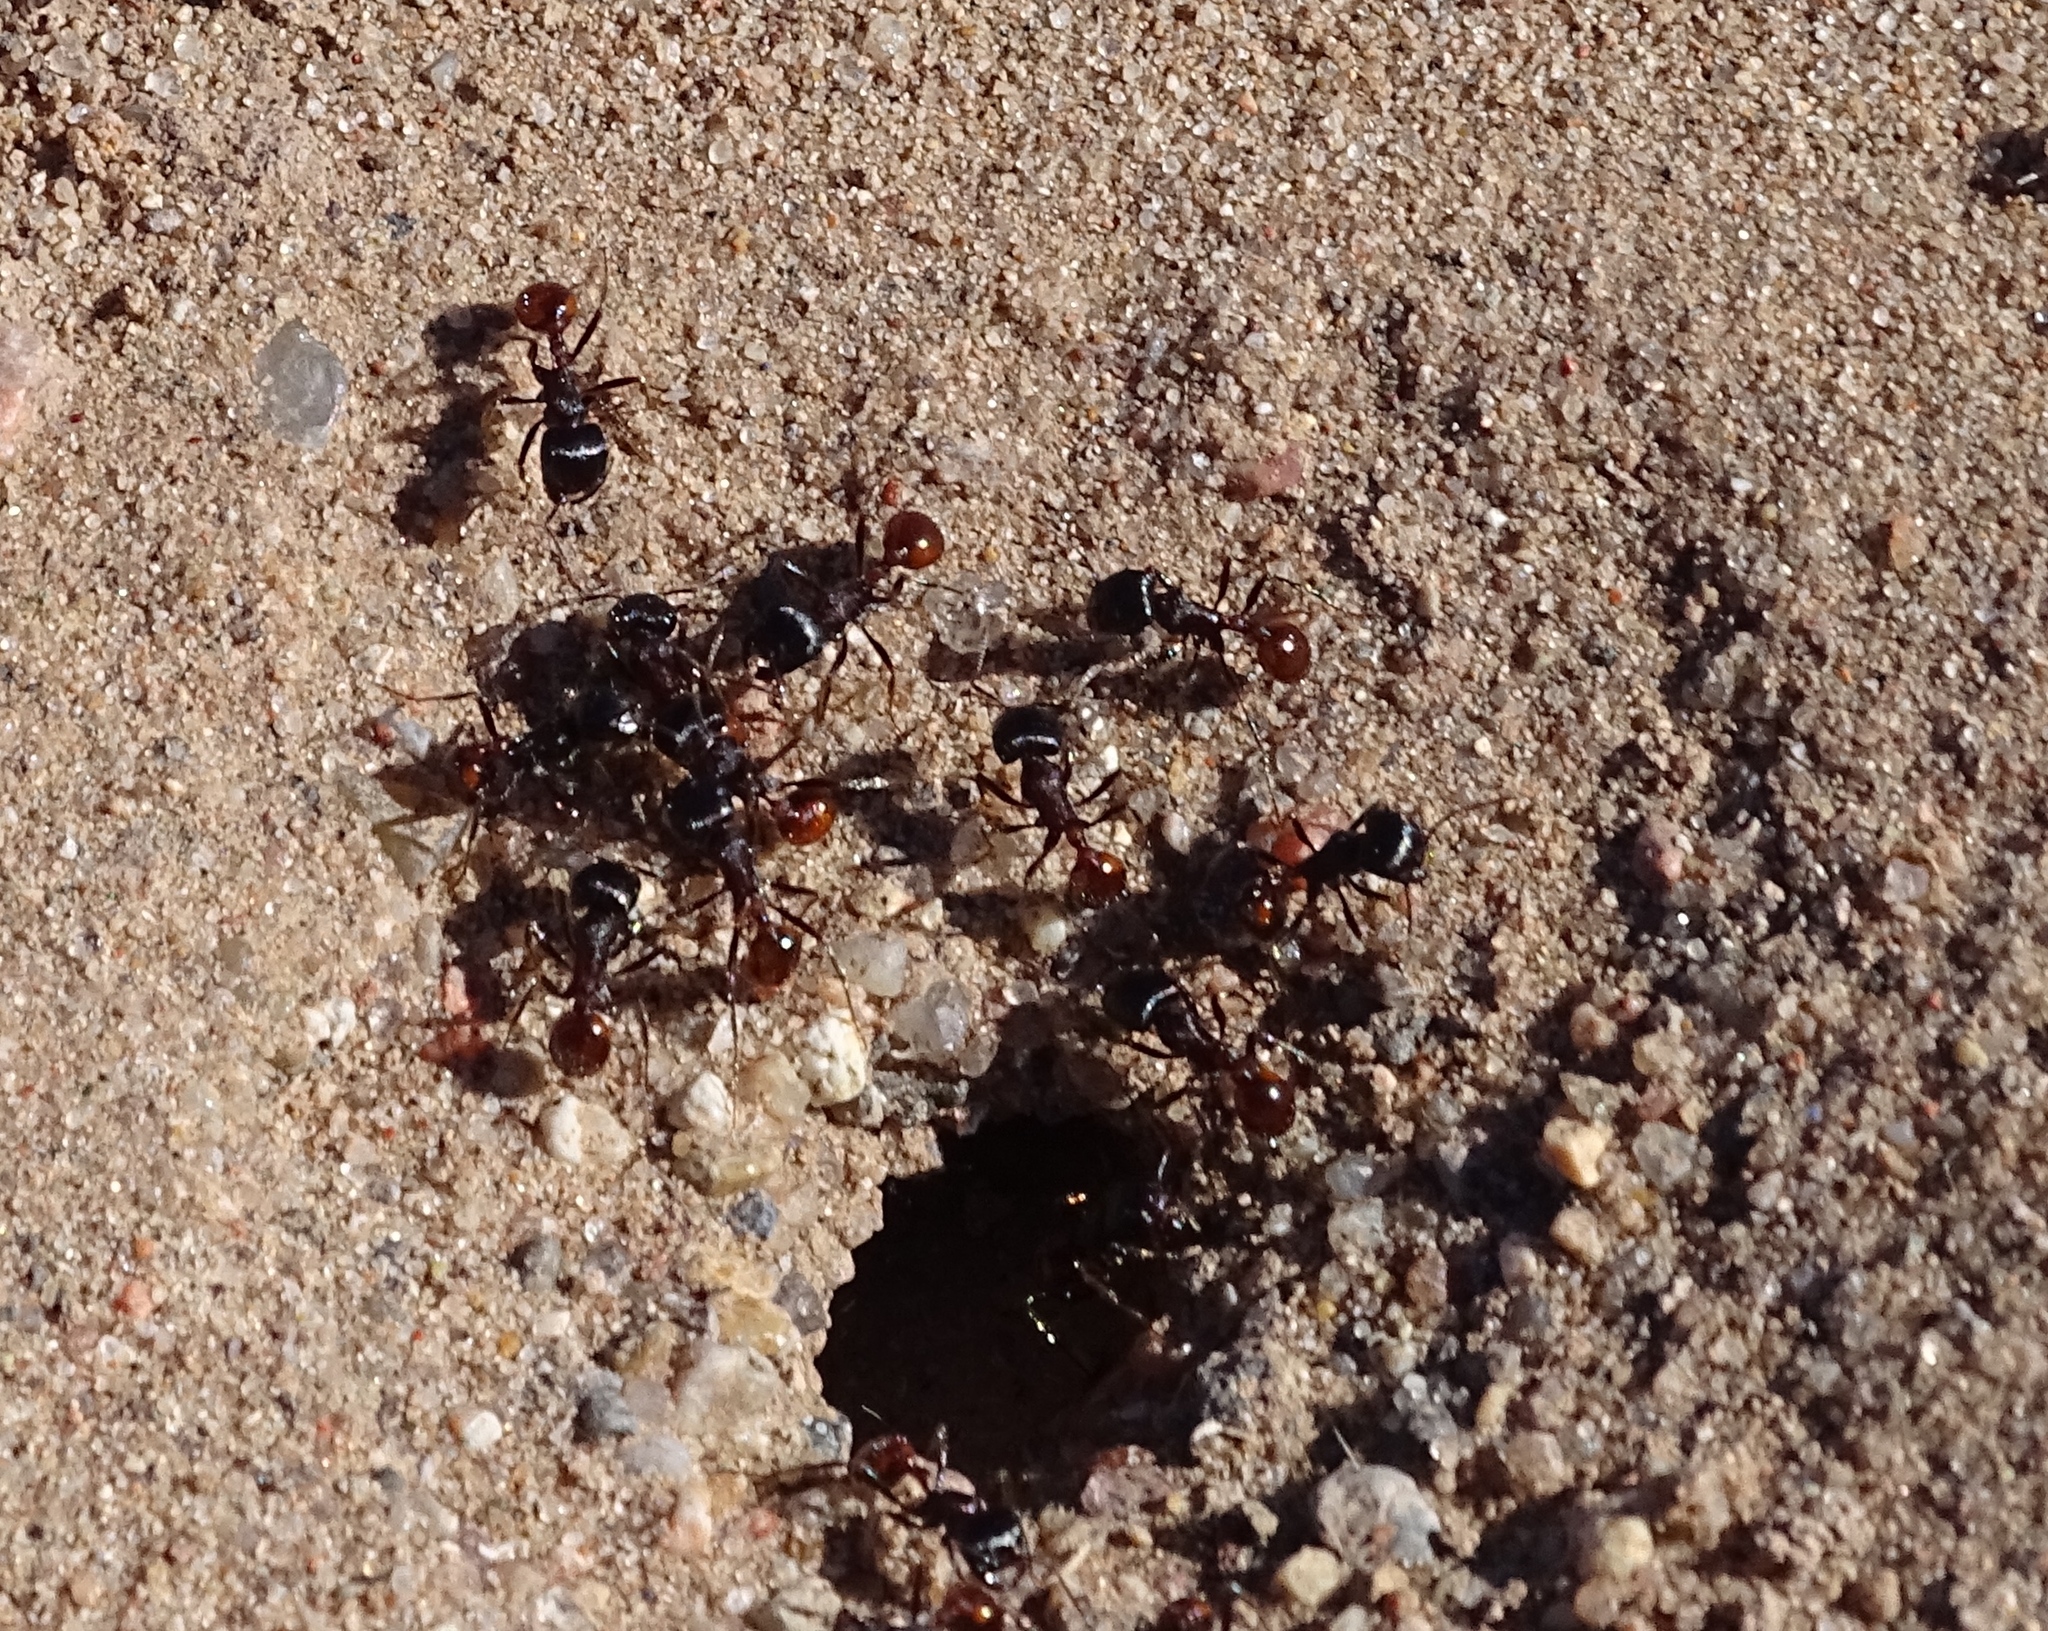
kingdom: Animalia
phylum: Arthropoda
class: Insecta
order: Hymenoptera
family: Formicidae
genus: Pogonomyrmex
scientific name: Pogonomyrmex rugosus
